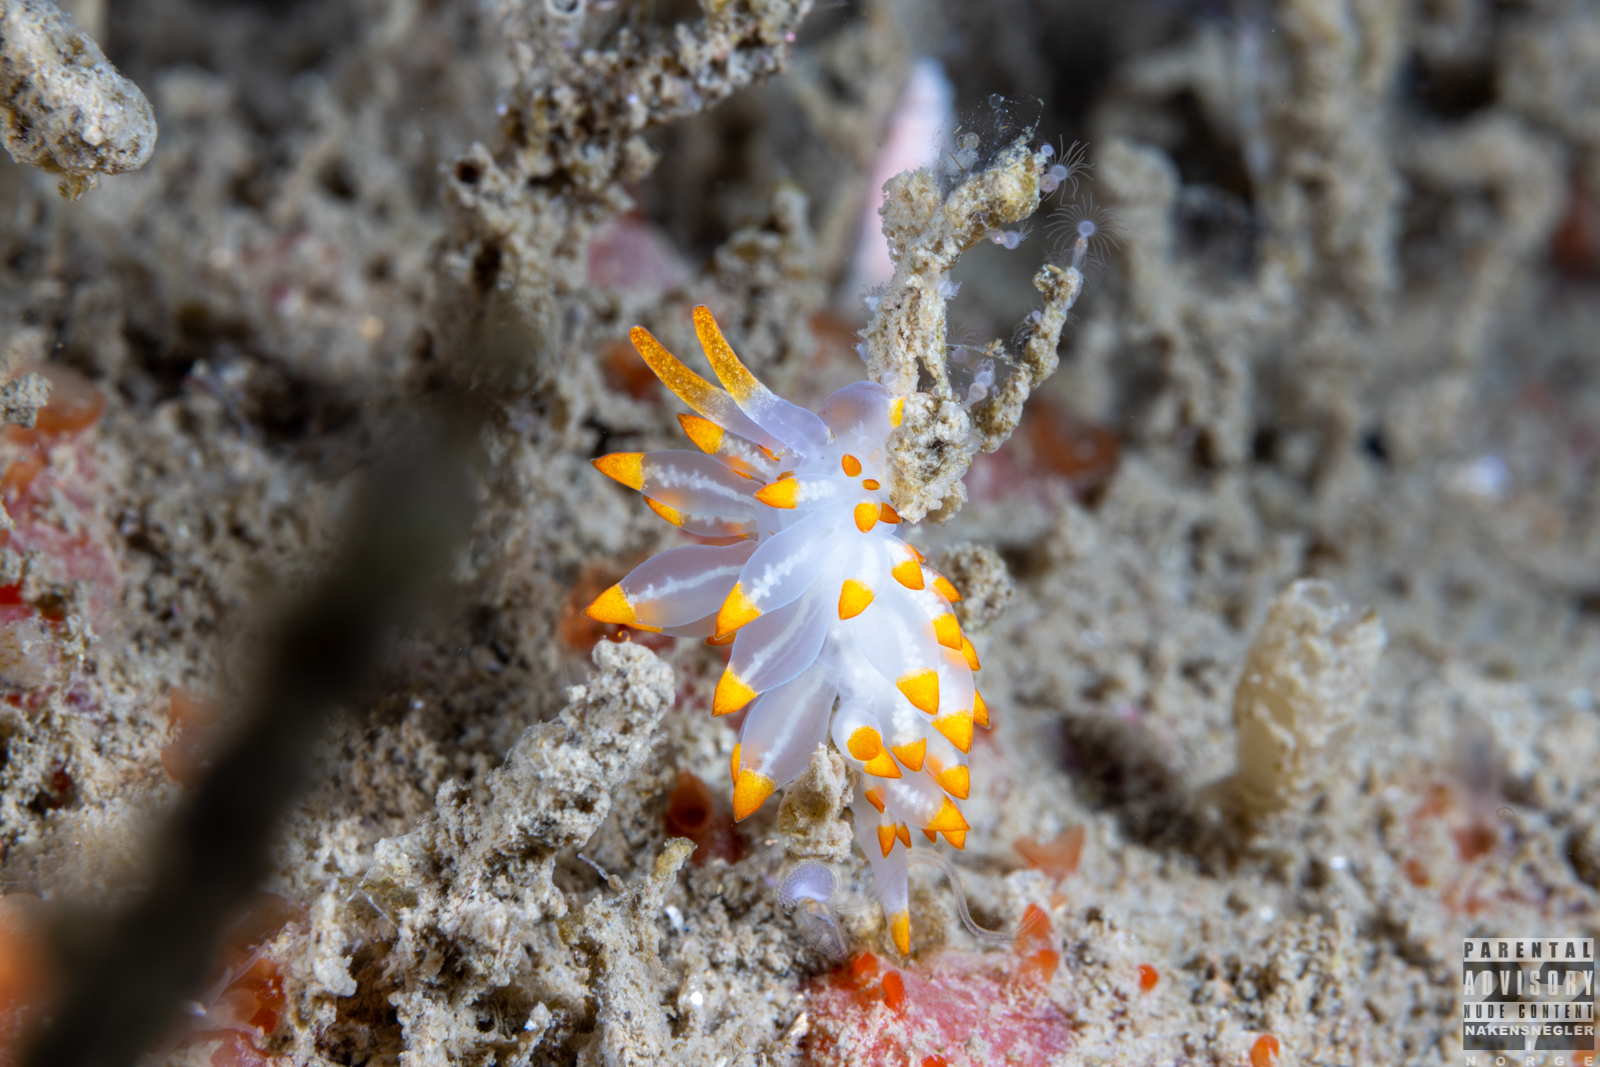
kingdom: Animalia
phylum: Mollusca
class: Gastropoda
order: Nudibranchia
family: Eubranchidae
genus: Amphorina
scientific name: Amphorina farrani
